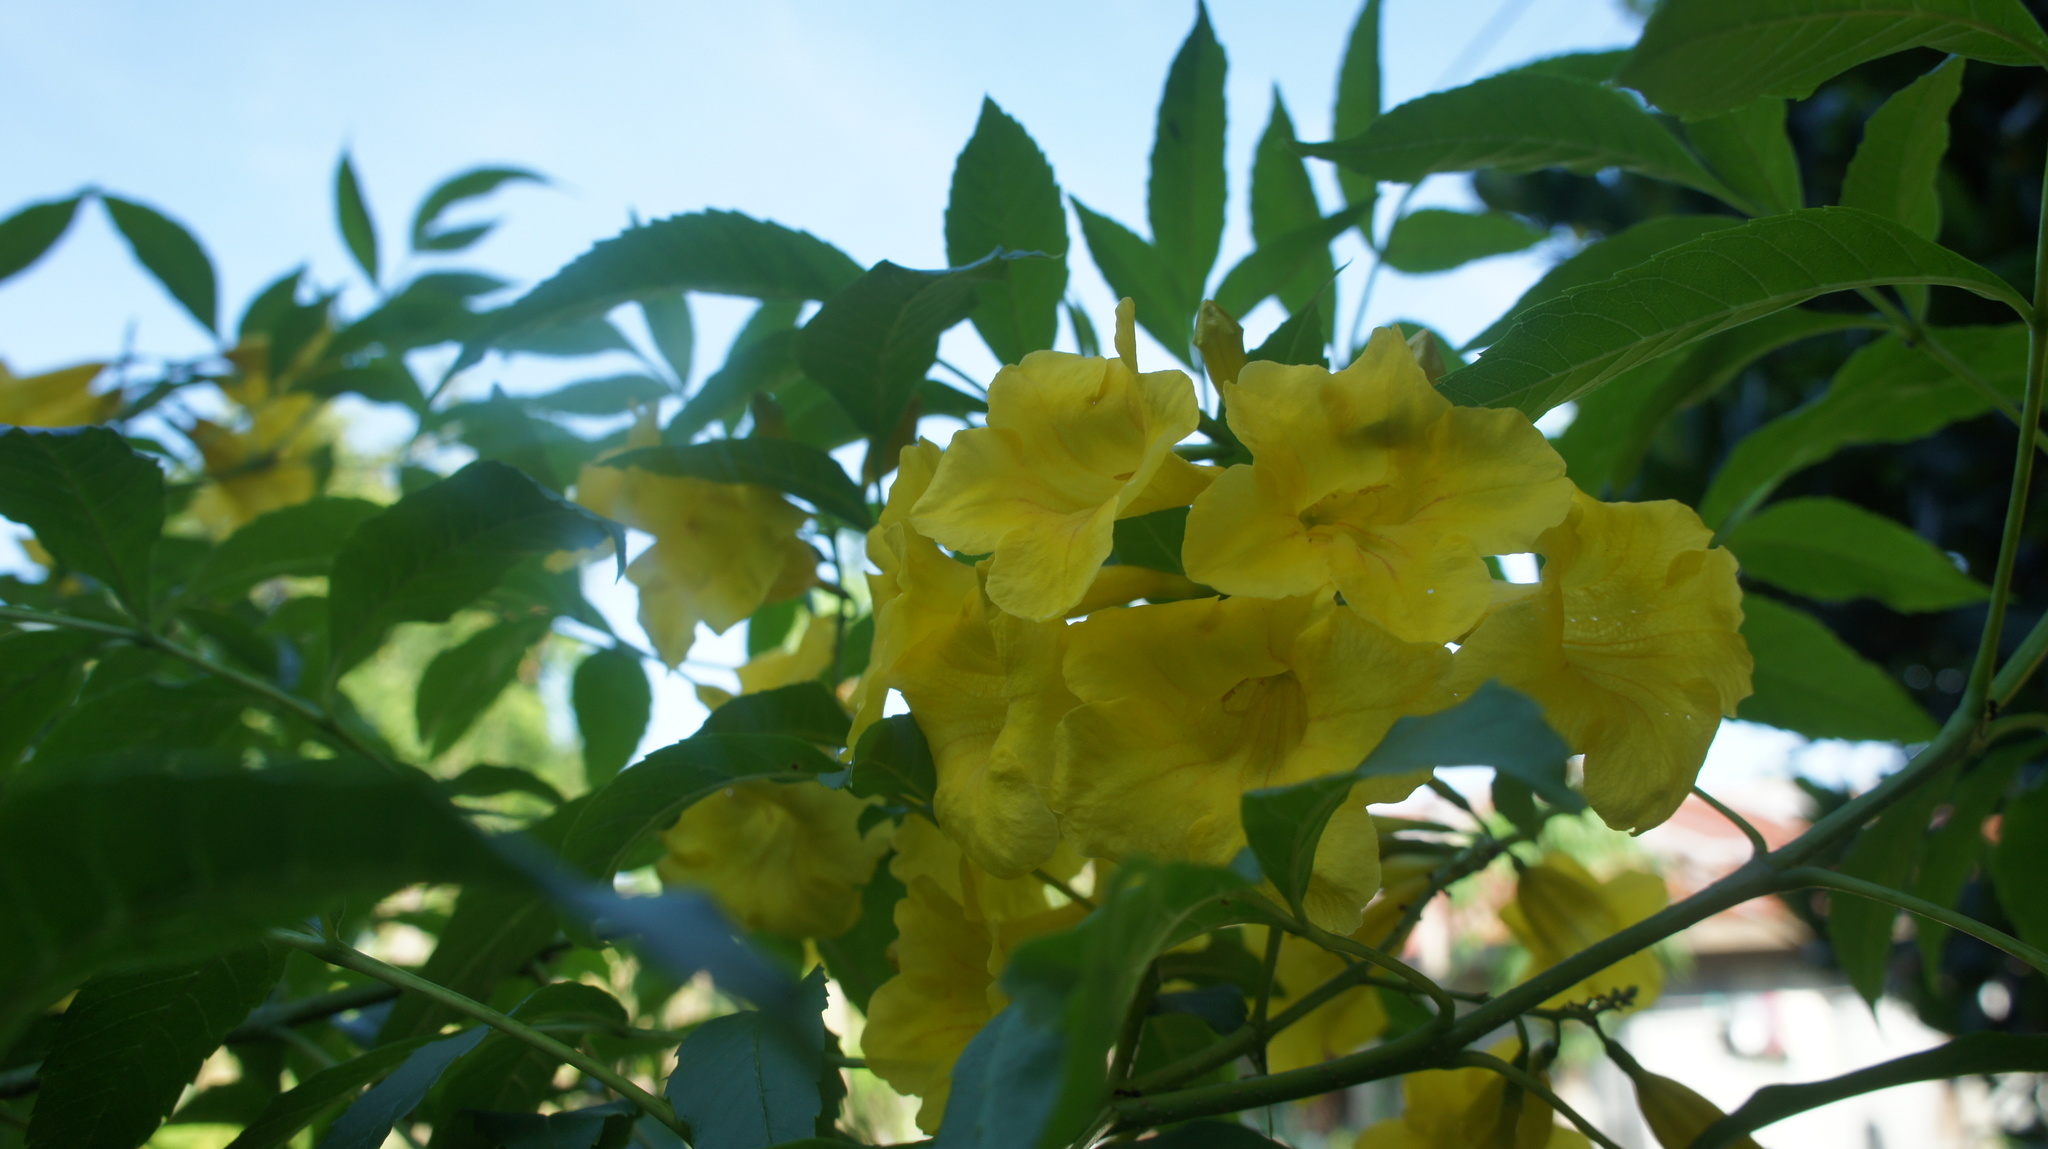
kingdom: Plantae
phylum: Tracheophyta
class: Magnoliopsida
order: Lamiales
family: Bignoniaceae
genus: Tecoma
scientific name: Tecoma stans
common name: Yellow trumpetbush
